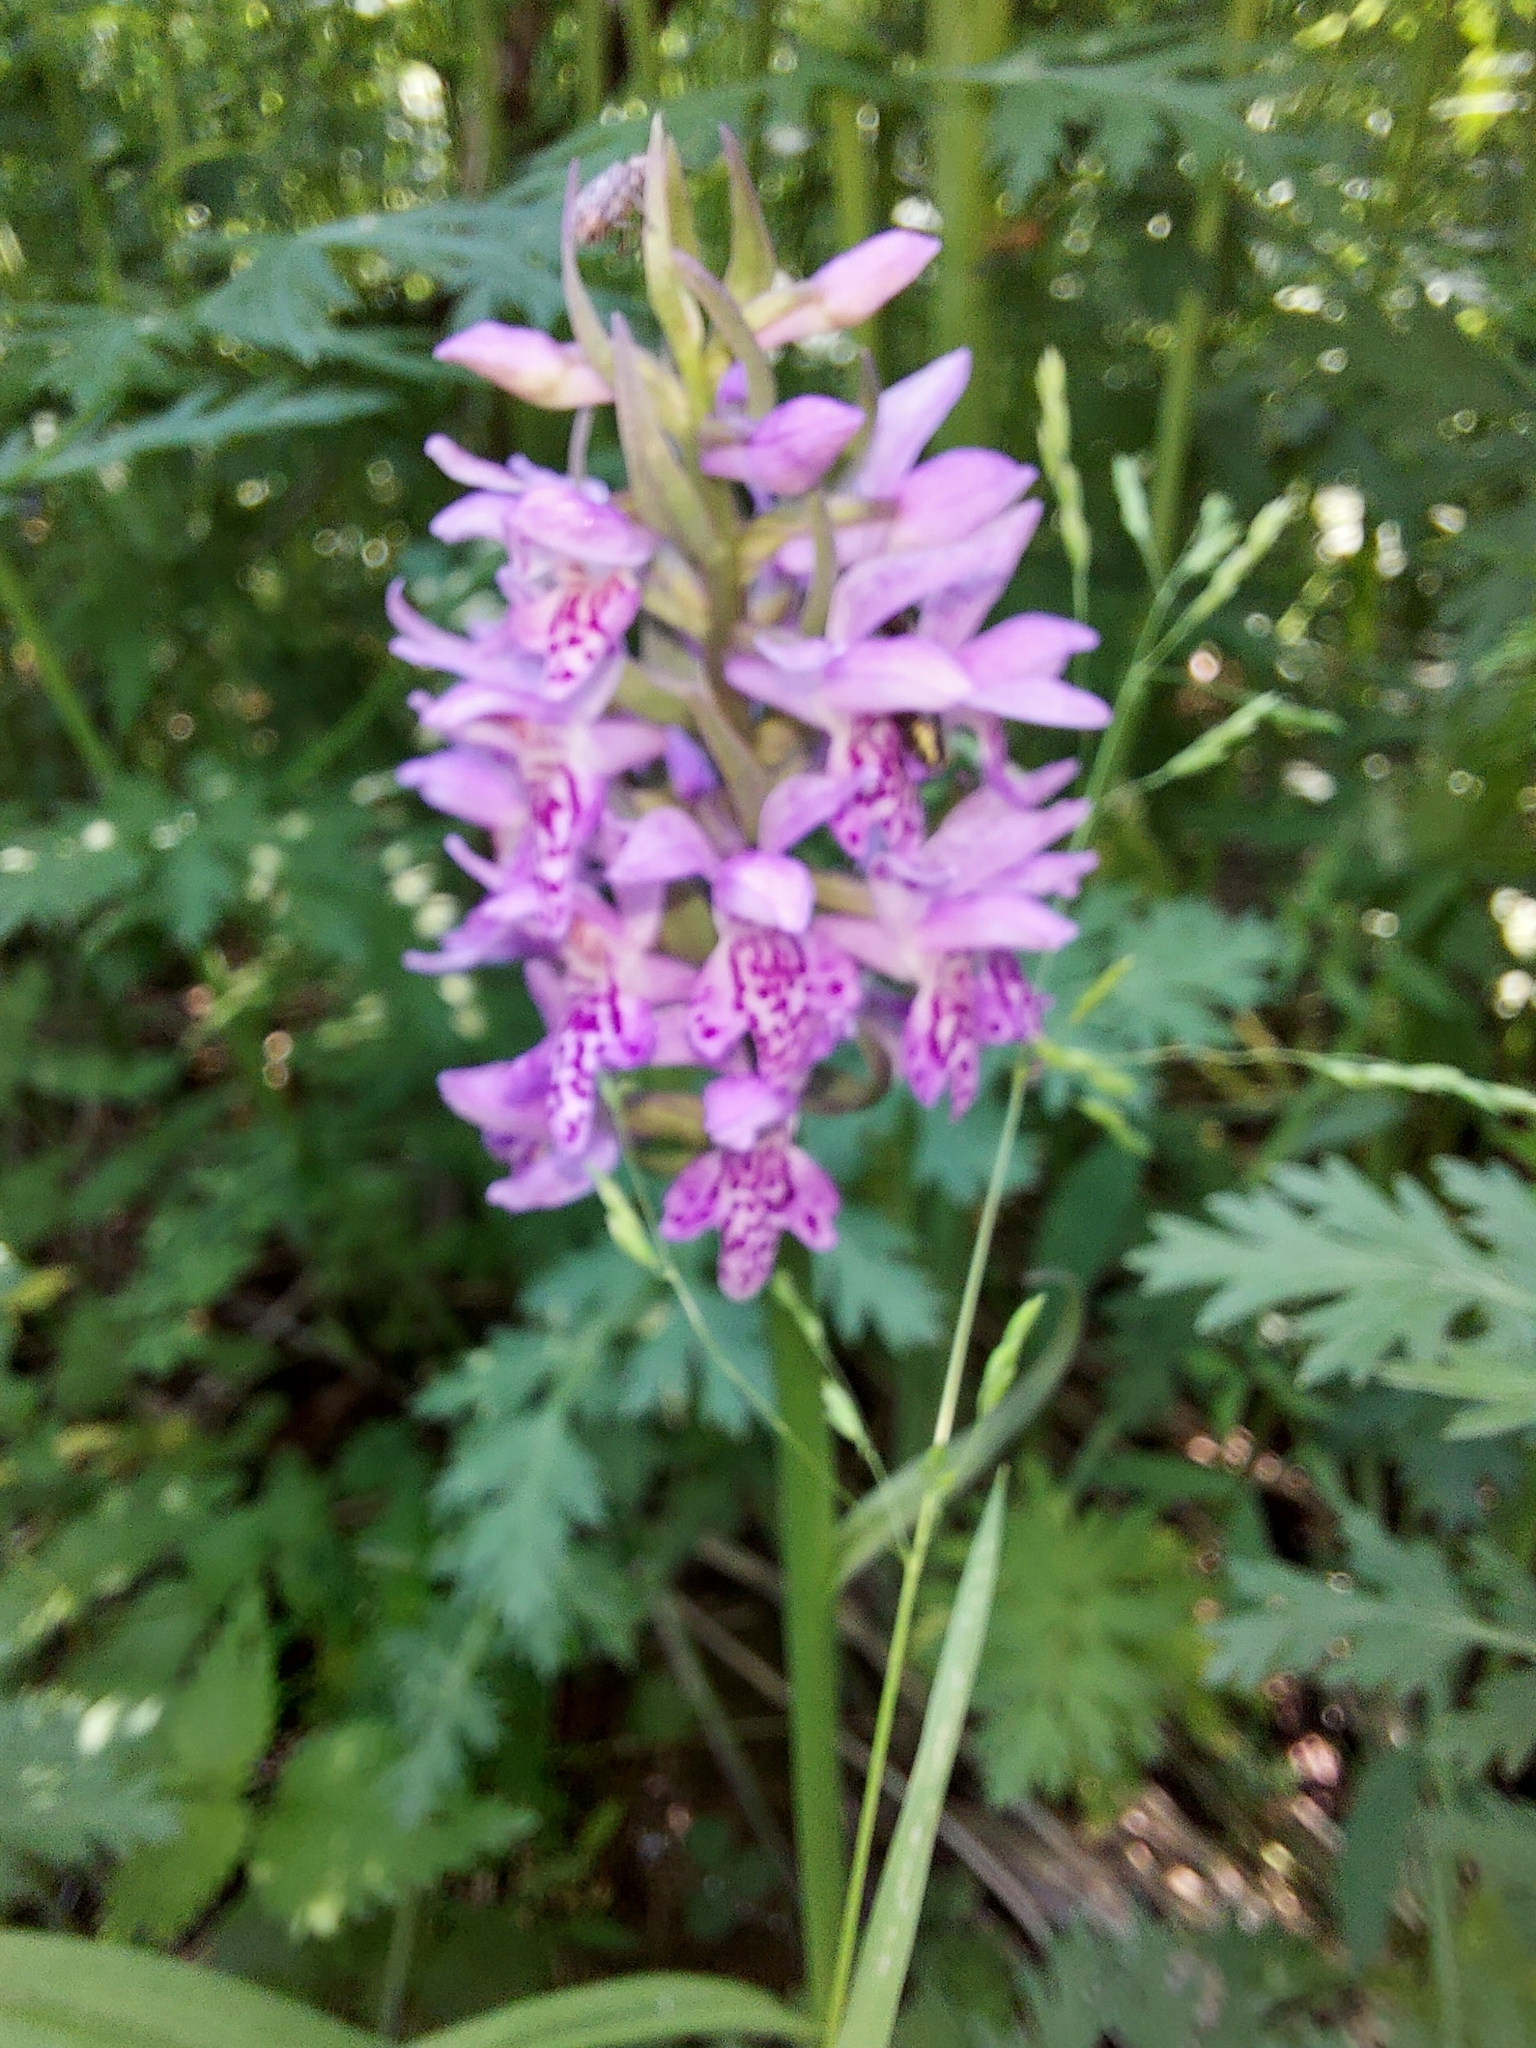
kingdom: Plantae
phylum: Tracheophyta
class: Liliopsida
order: Asparagales
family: Orchidaceae
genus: Dactylorhiza
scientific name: Dactylorhiza sibirica
